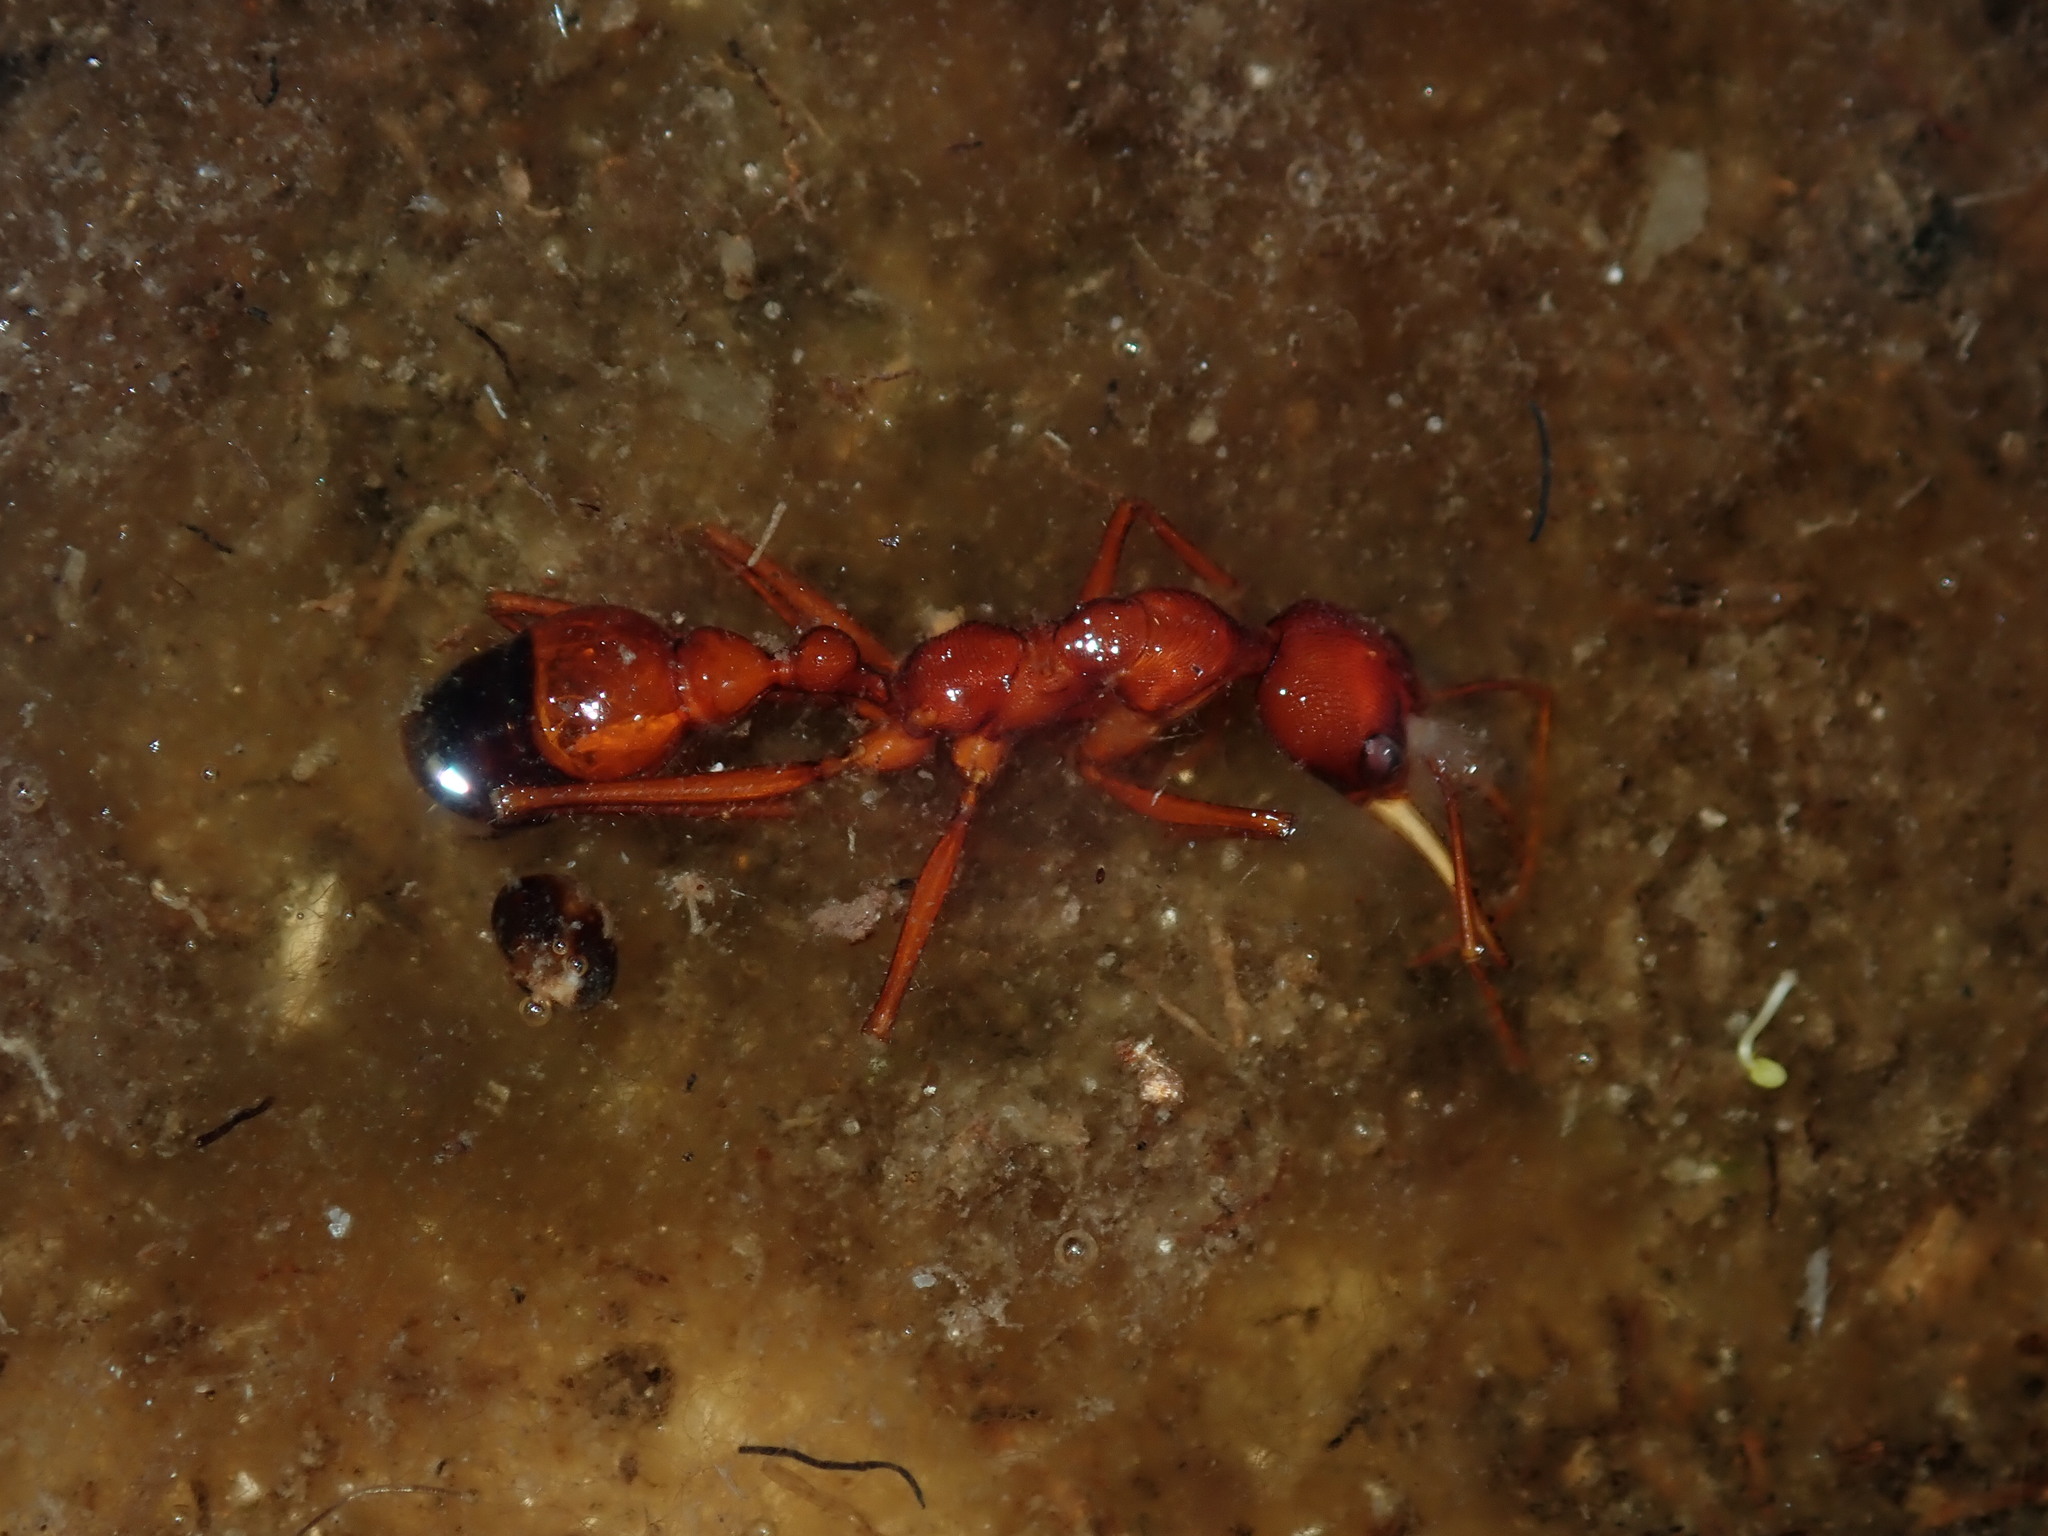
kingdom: Animalia
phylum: Arthropoda
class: Insecta
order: Hymenoptera
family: Formicidae
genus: Myrmecia
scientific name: Myrmecia gulosa
